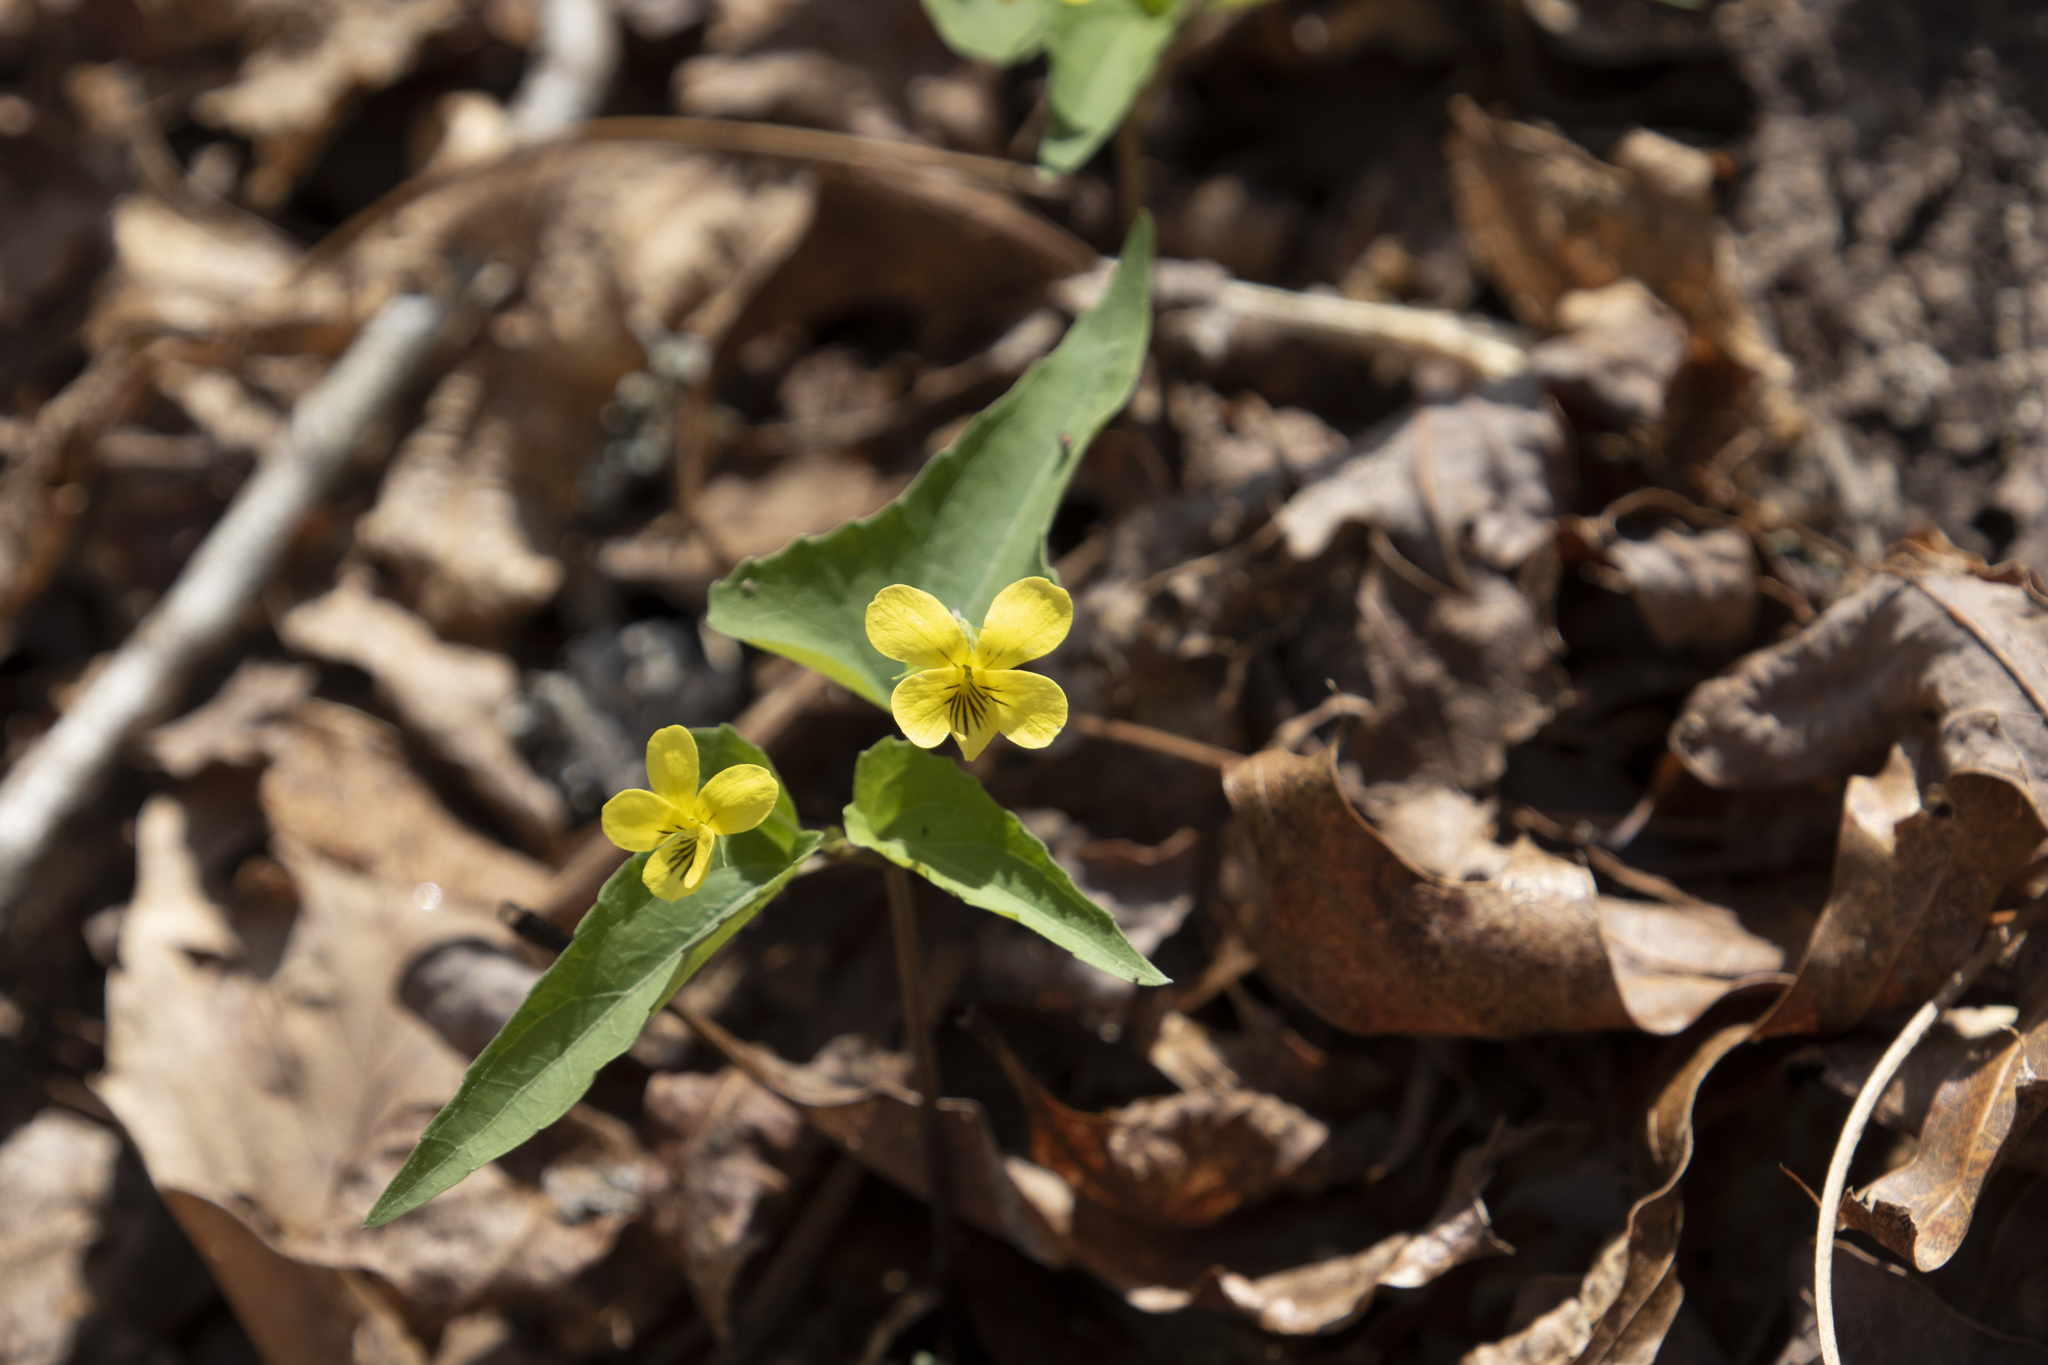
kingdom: Plantae
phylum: Tracheophyta
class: Magnoliopsida
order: Malpighiales
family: Violaceae
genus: Viola
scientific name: Viola hastata
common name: Spear-leaf violet
